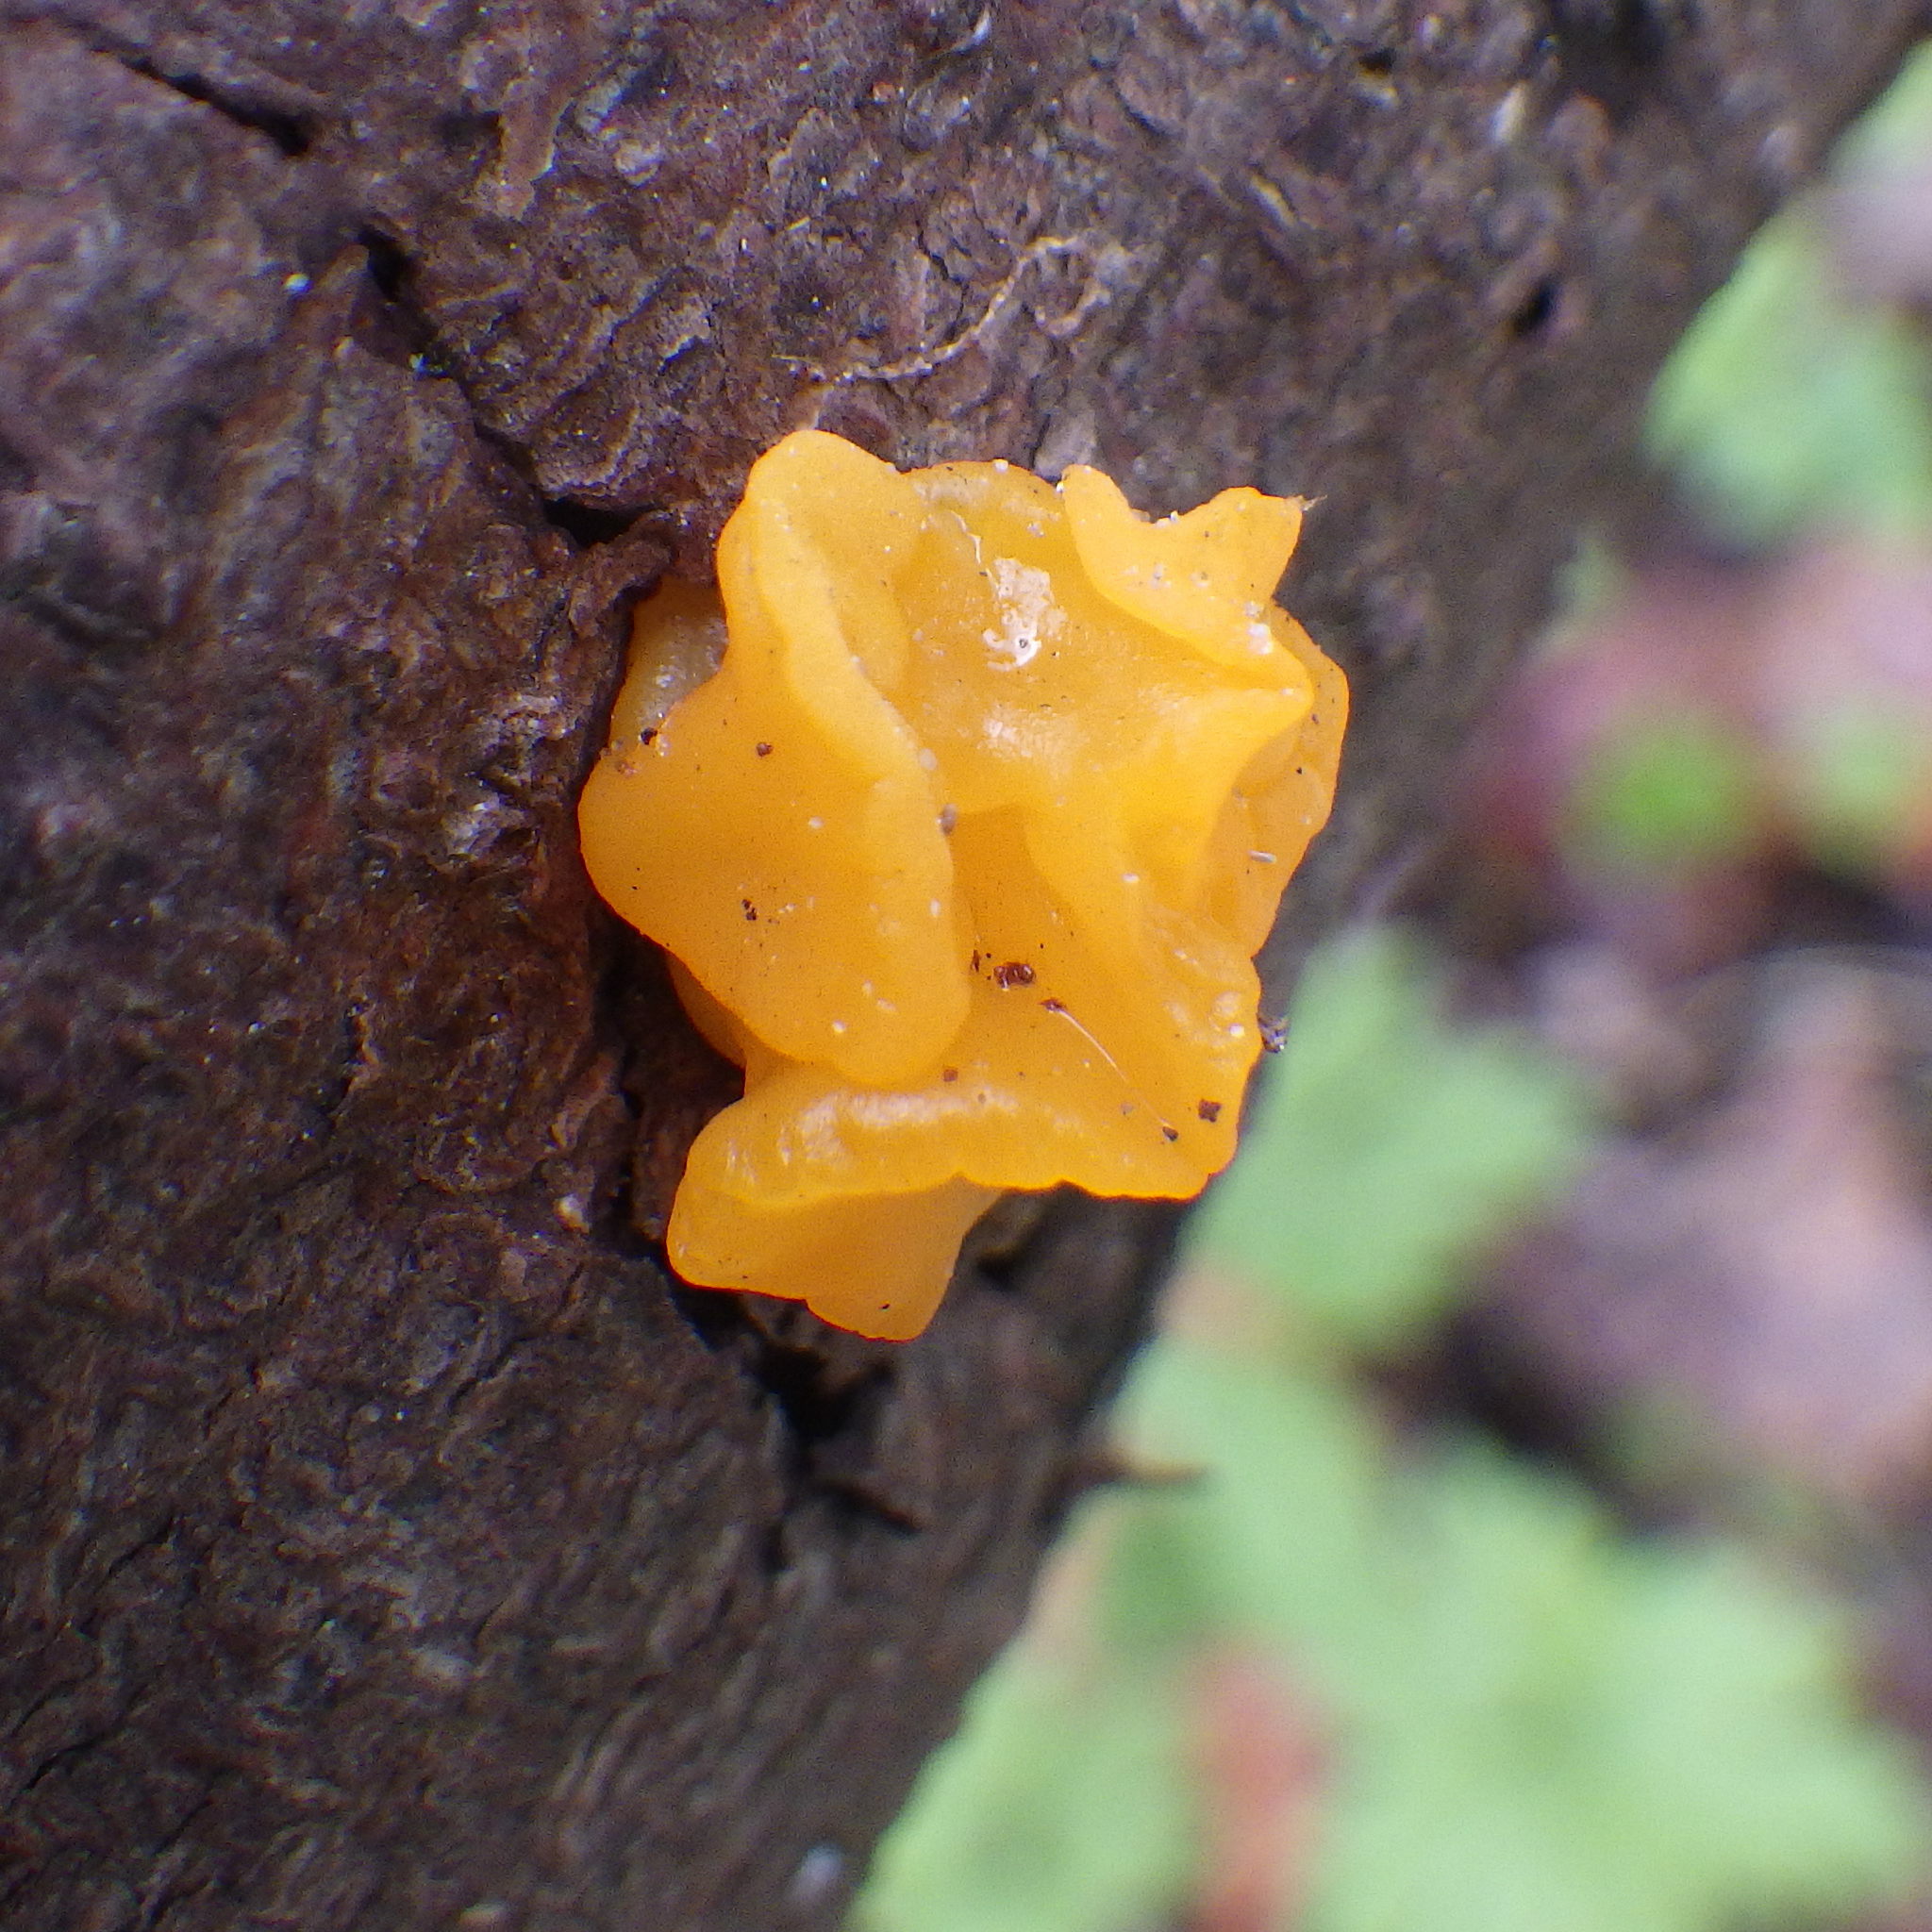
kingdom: Fungi
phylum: Basidiomycota
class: Dacrymycetes
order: Dacrymycetales
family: Dacrymycetaceae
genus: Dacrymyces
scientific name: Dacrymyces chrysospermus
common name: Orange jelly spot
